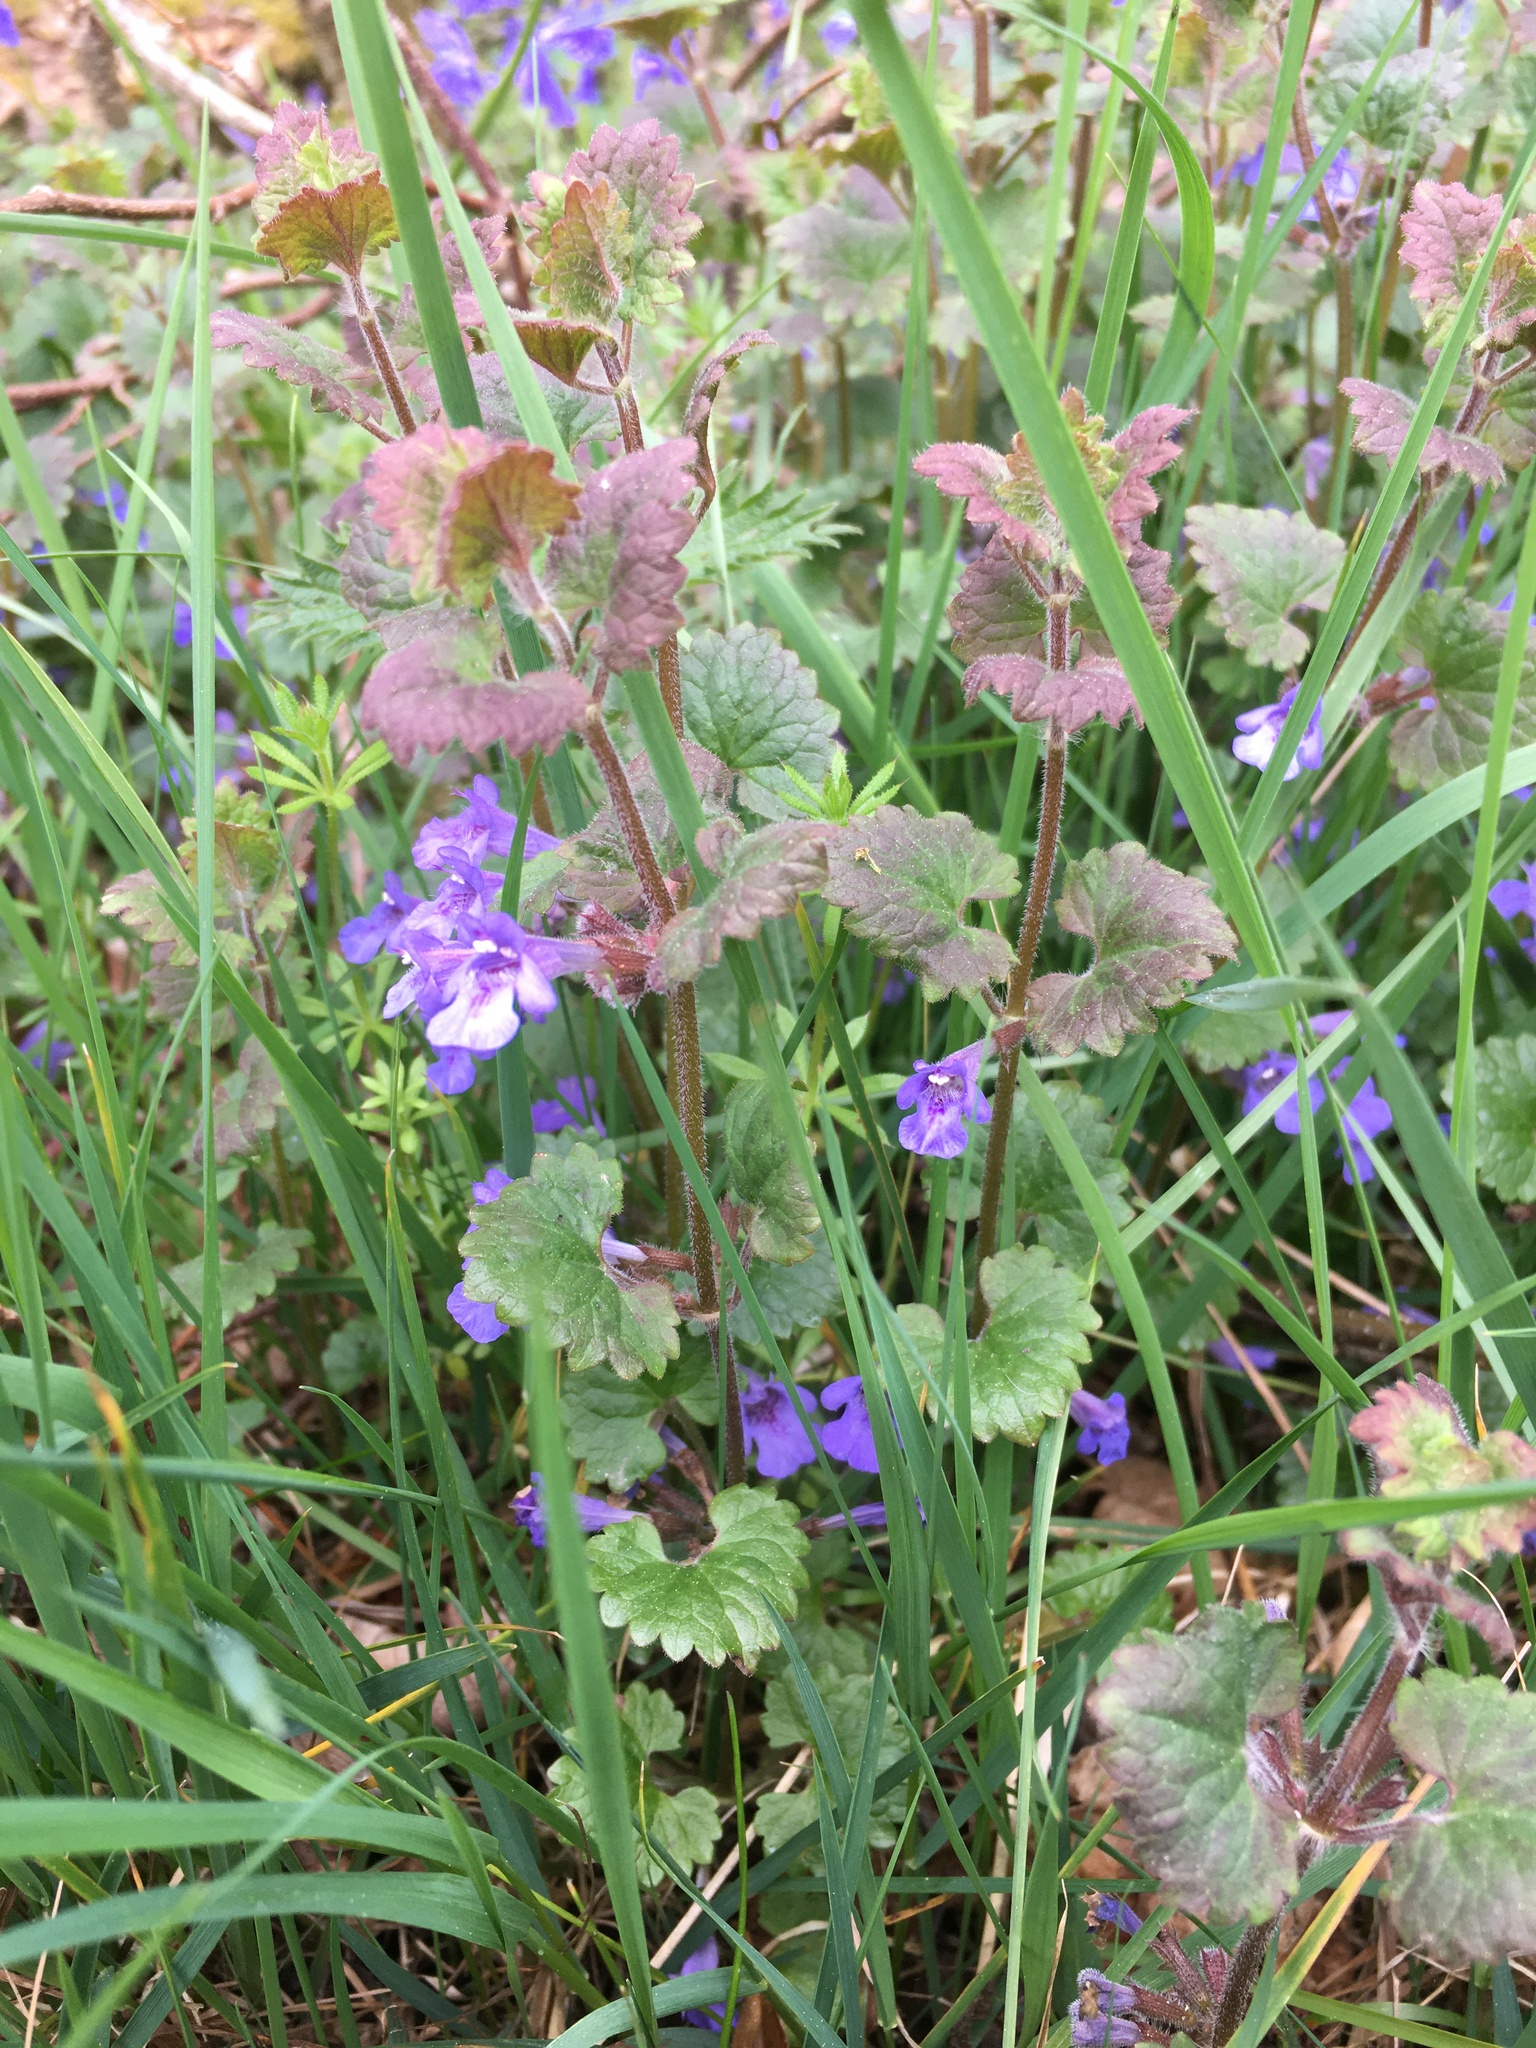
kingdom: Plantae
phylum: Tracheophyta
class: Magnoliopsida
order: Lamiales
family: Lamiaceae
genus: Glechoma
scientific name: Glechoma hederacea
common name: Ground ivy
